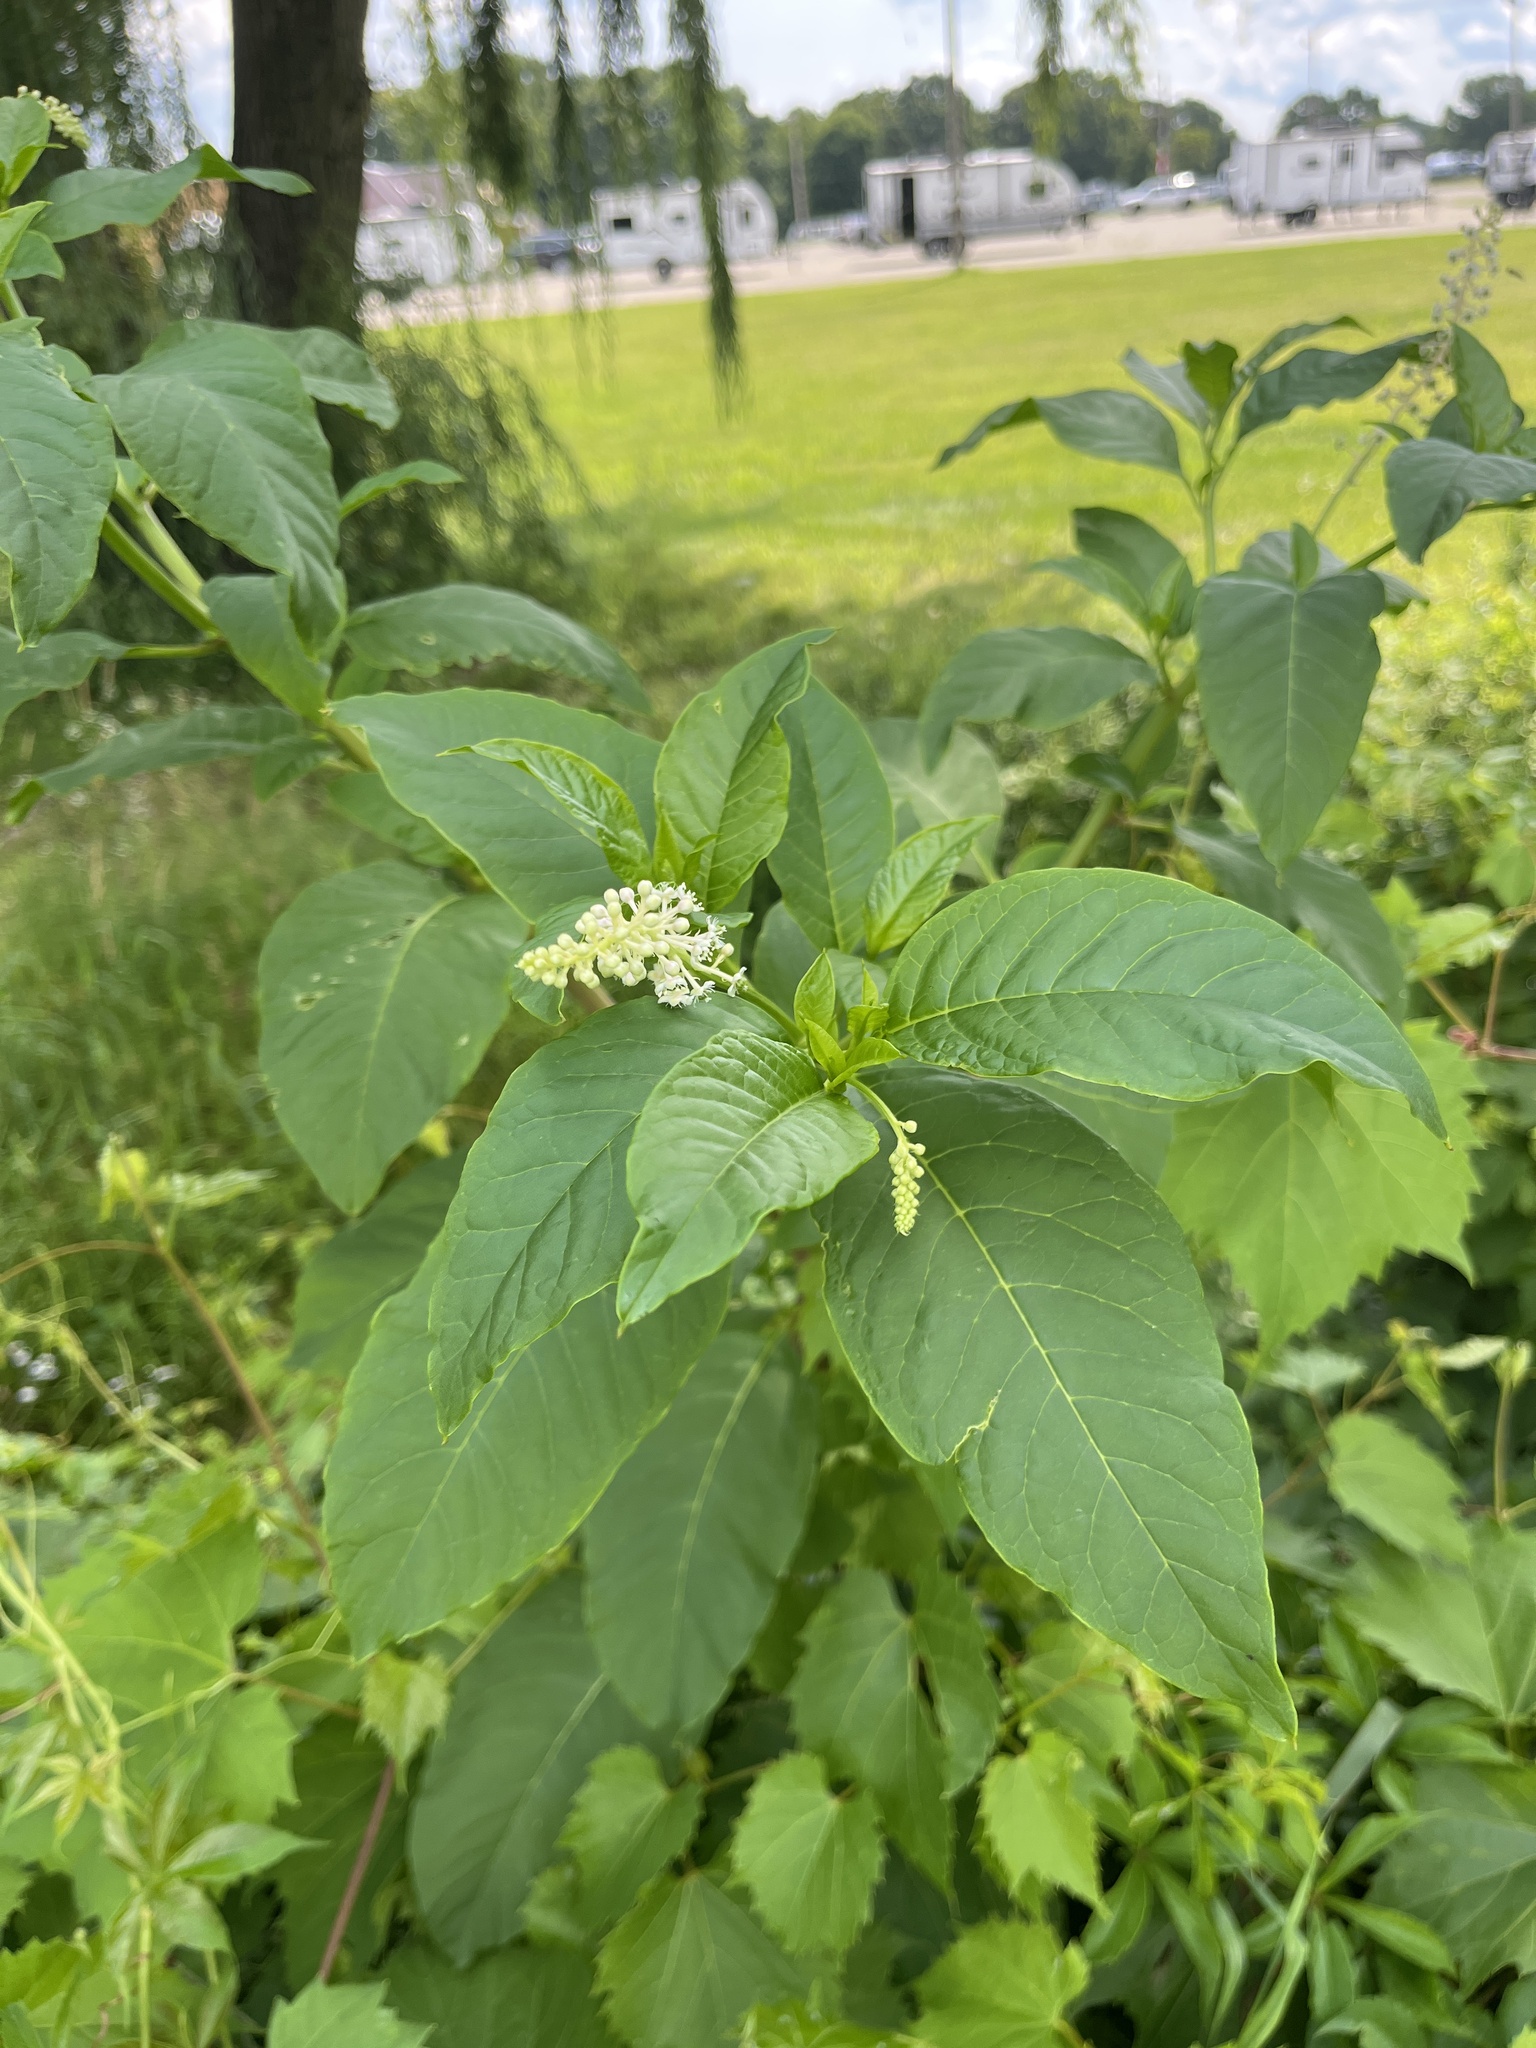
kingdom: Plantae
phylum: Tracheophyta
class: Magnoliopsida
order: Caryophyllales
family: Phytolaccaceae
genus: Phytolacca
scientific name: Phytolacca americana
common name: American pokeweed
